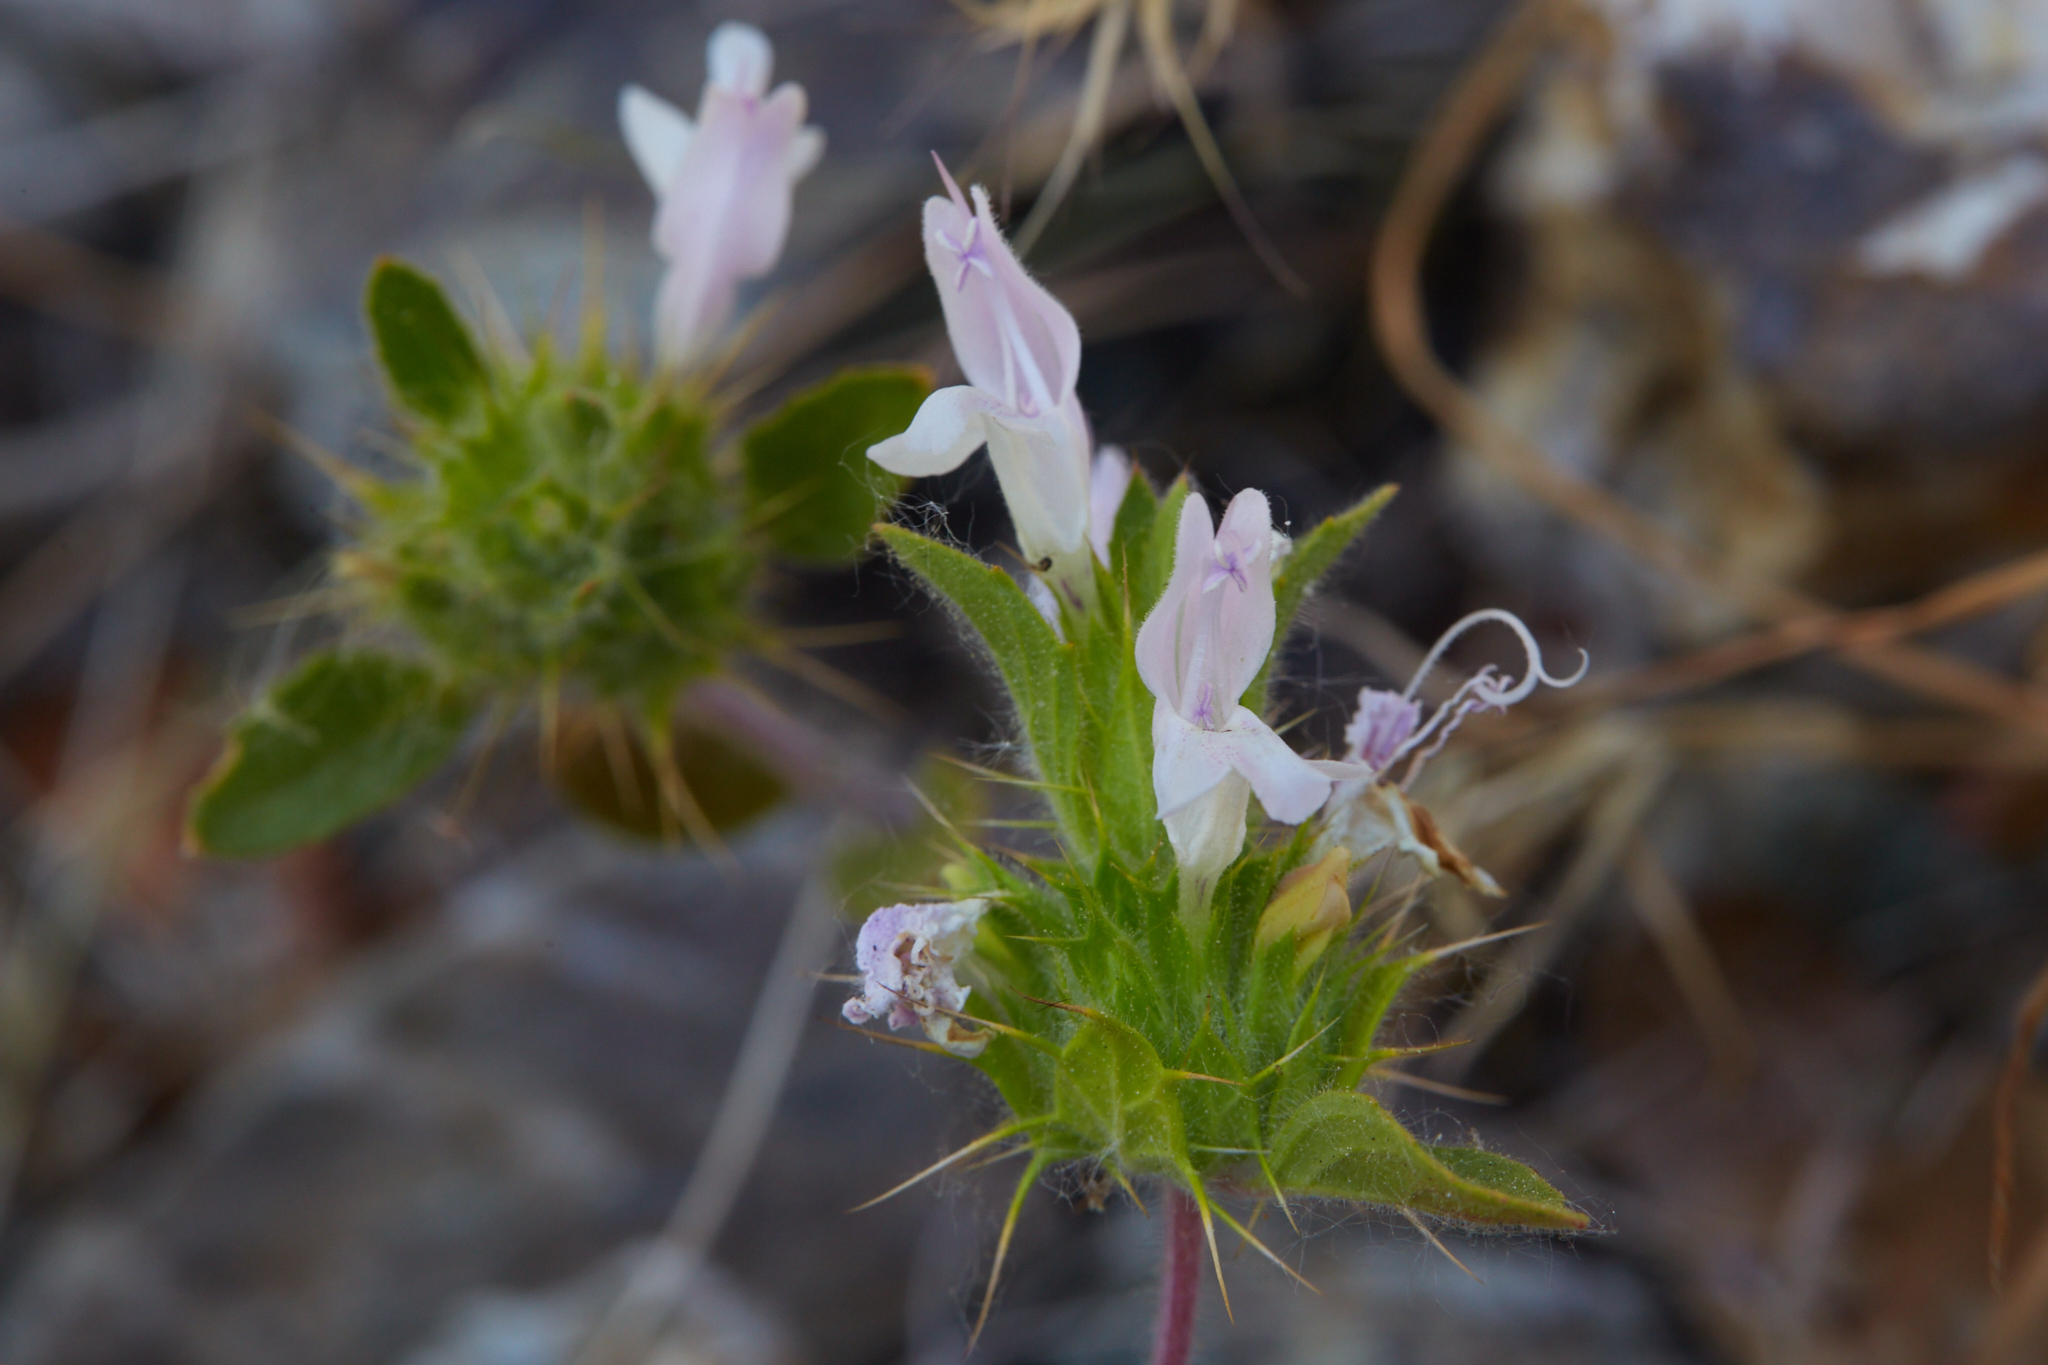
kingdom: Plantae
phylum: Tracheophyta
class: Magnoliopsida
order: Lamiales
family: Lamiaceae
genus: Acanthomintha
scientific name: Acanthomintha lanceolata
